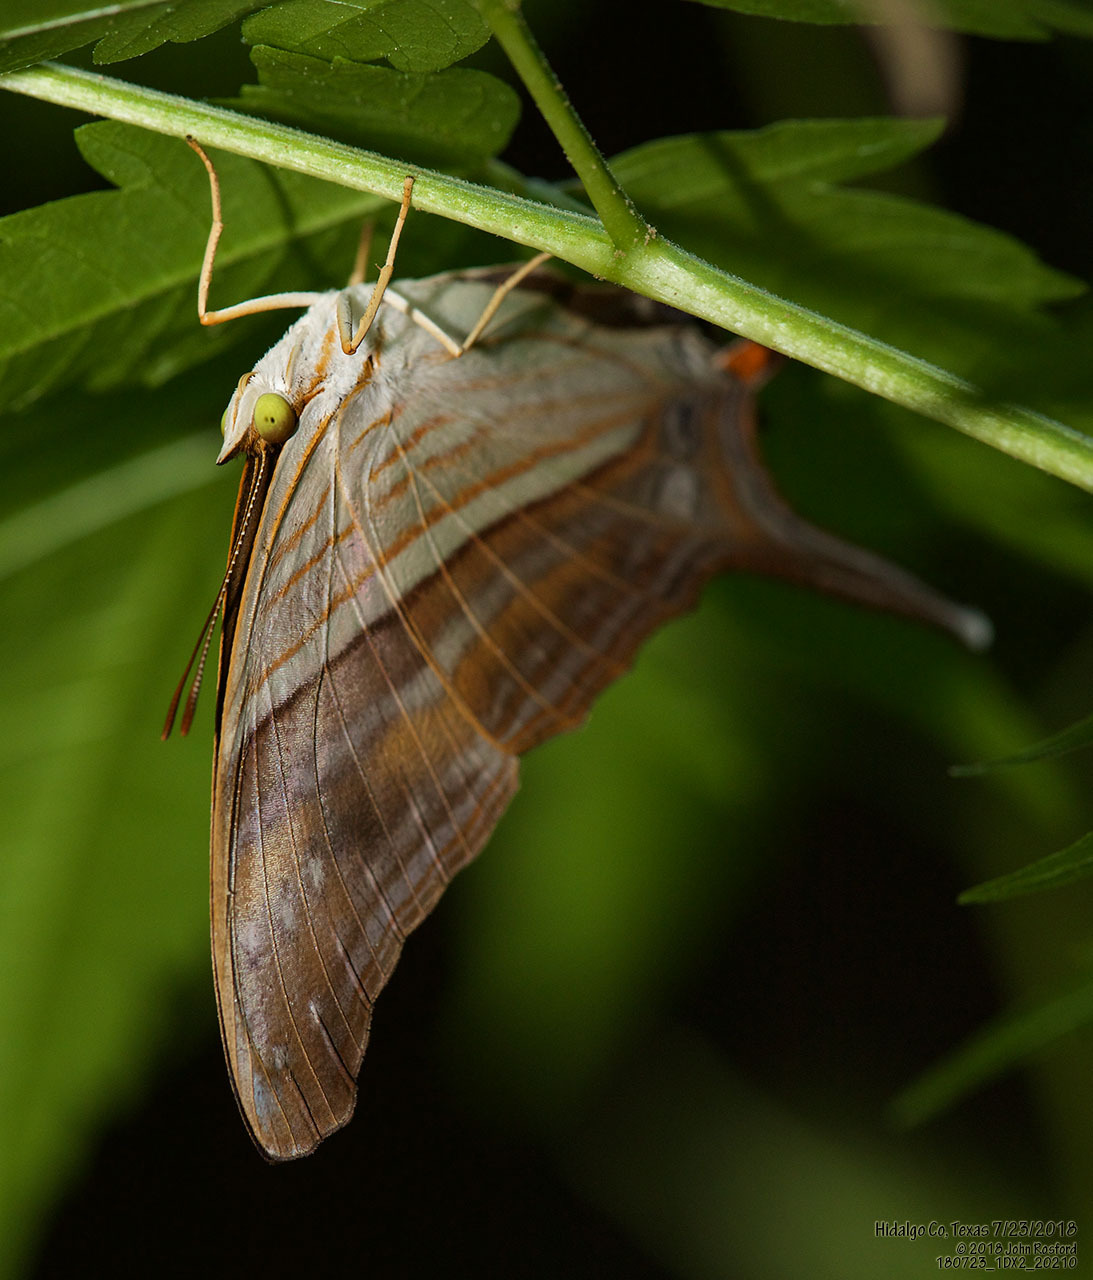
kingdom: Animalia
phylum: Arthropoda
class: Insecta
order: Lepidoptera
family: Nymphalidae
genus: Marpesia
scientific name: Marpesia chiron
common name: Many-banded daggerwing
